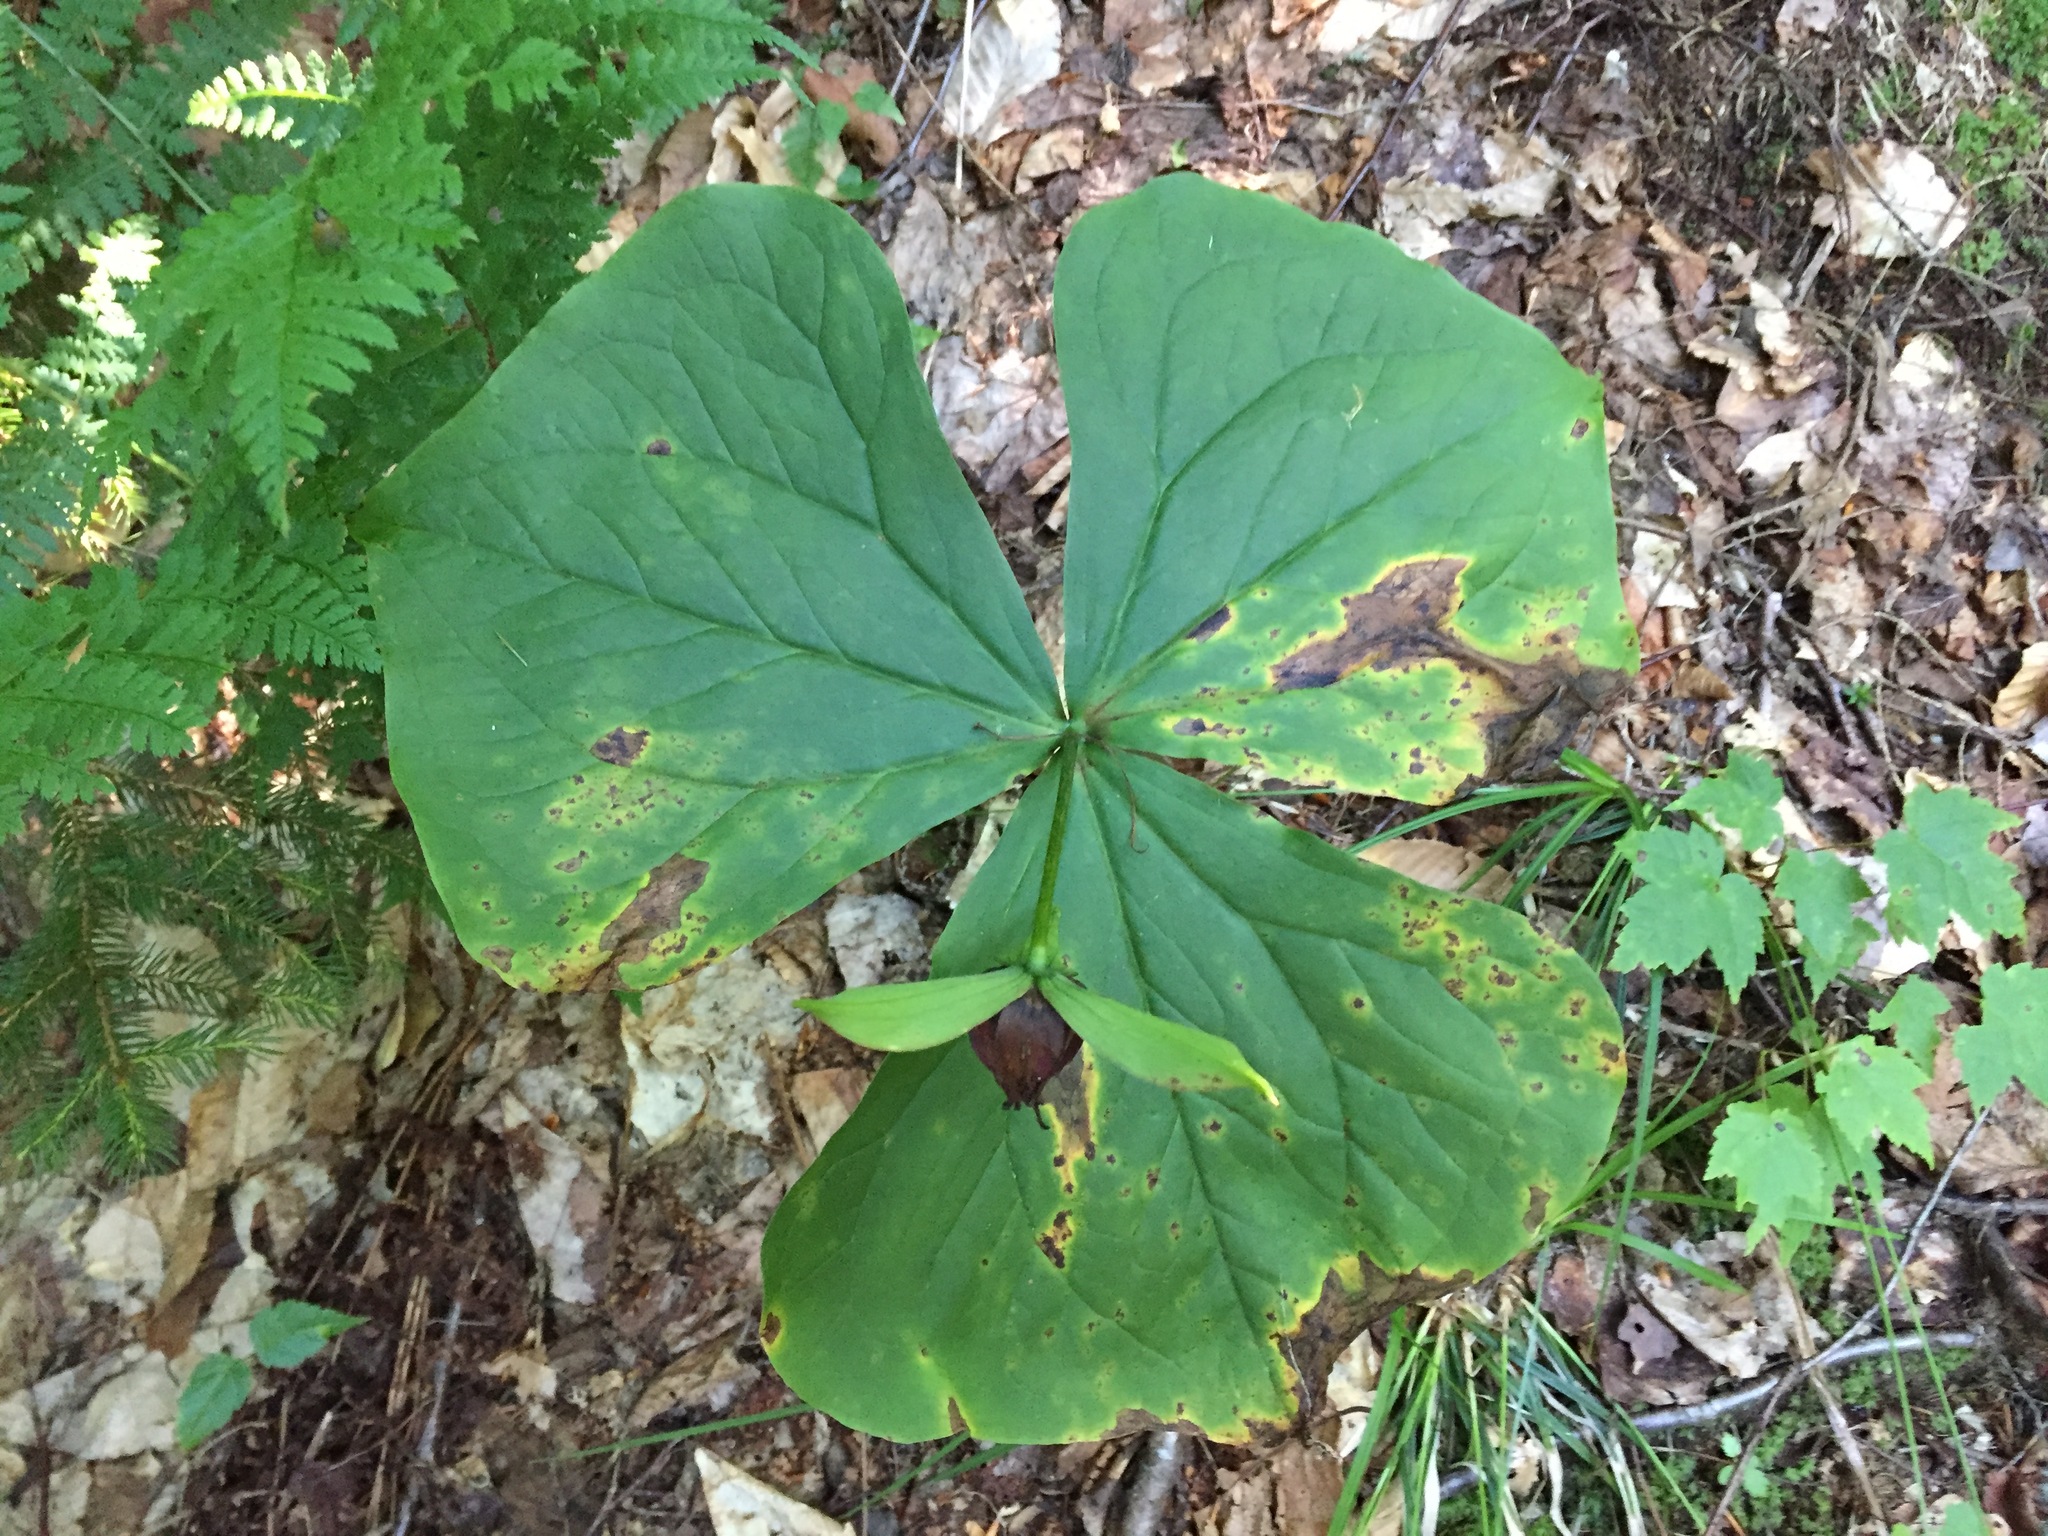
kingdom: Plantae
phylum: Tracheophyta
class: Liliopsida
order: Liliales
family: Melanthiaceae
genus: Trillium
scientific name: Trillium erectum
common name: Purple trillium
